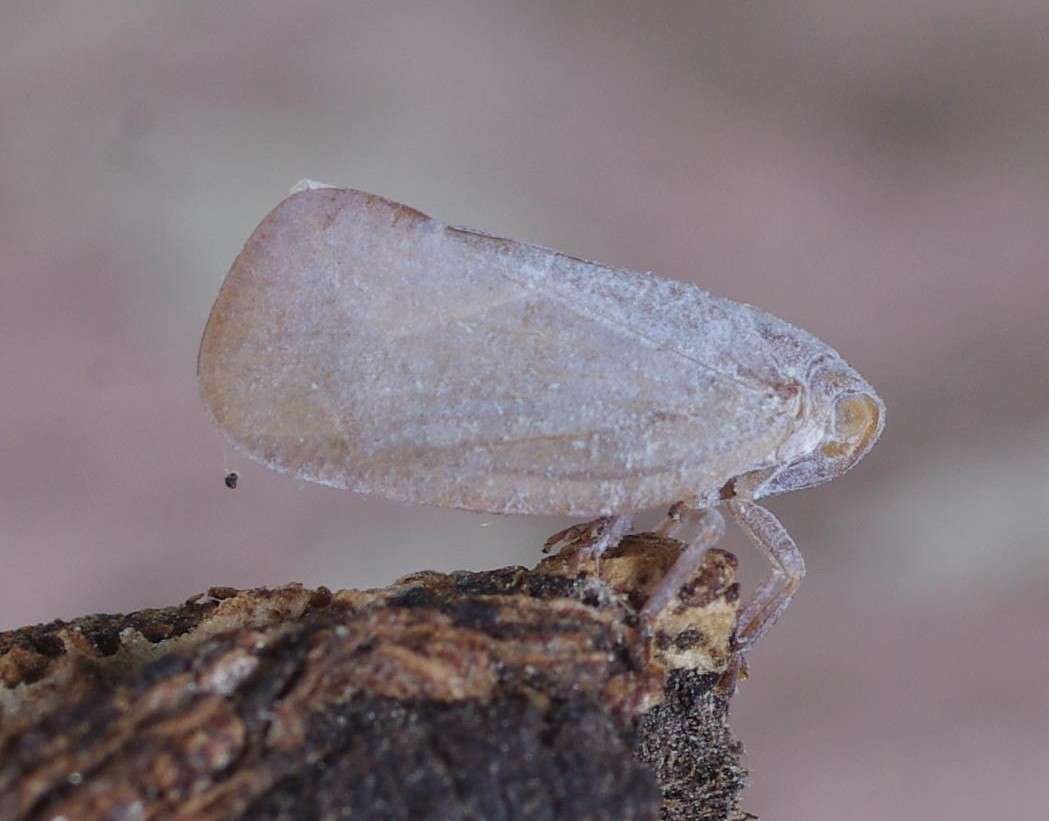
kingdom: Animalia
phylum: Arthropoda
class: Insecta
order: Hemiptera
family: Flatidae
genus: Anzora
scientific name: Anzora unicolor
